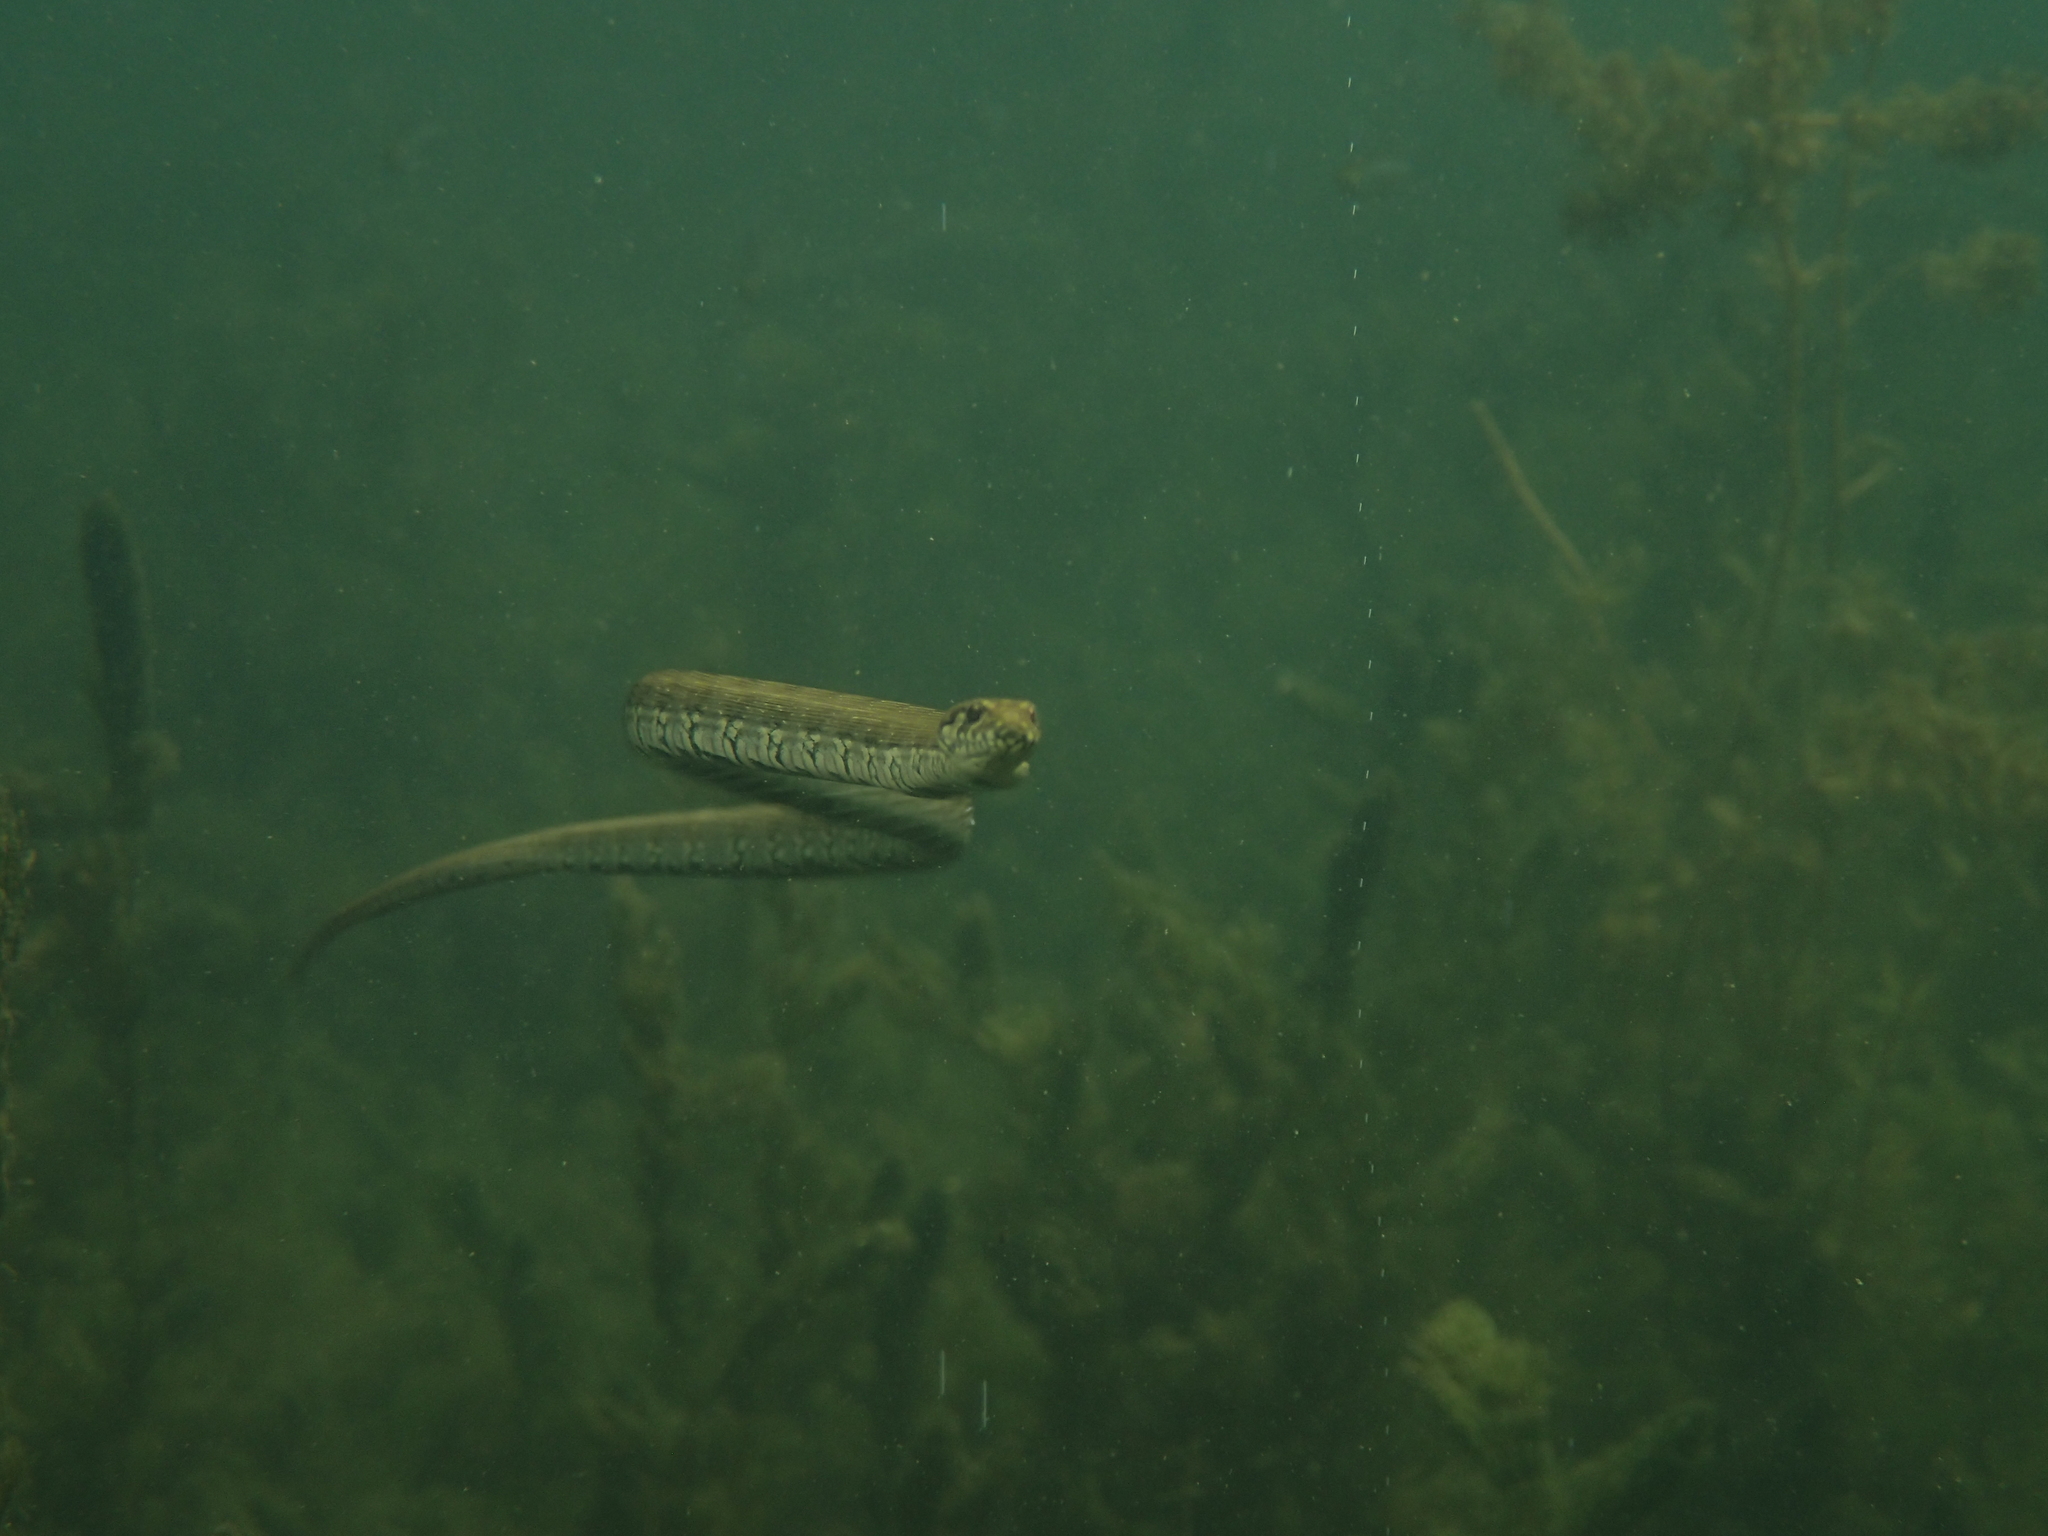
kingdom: Animalia
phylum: Chordata
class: Squamata
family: Colubridae
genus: Natrix
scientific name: Natrix maura
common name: Viperine water snake
